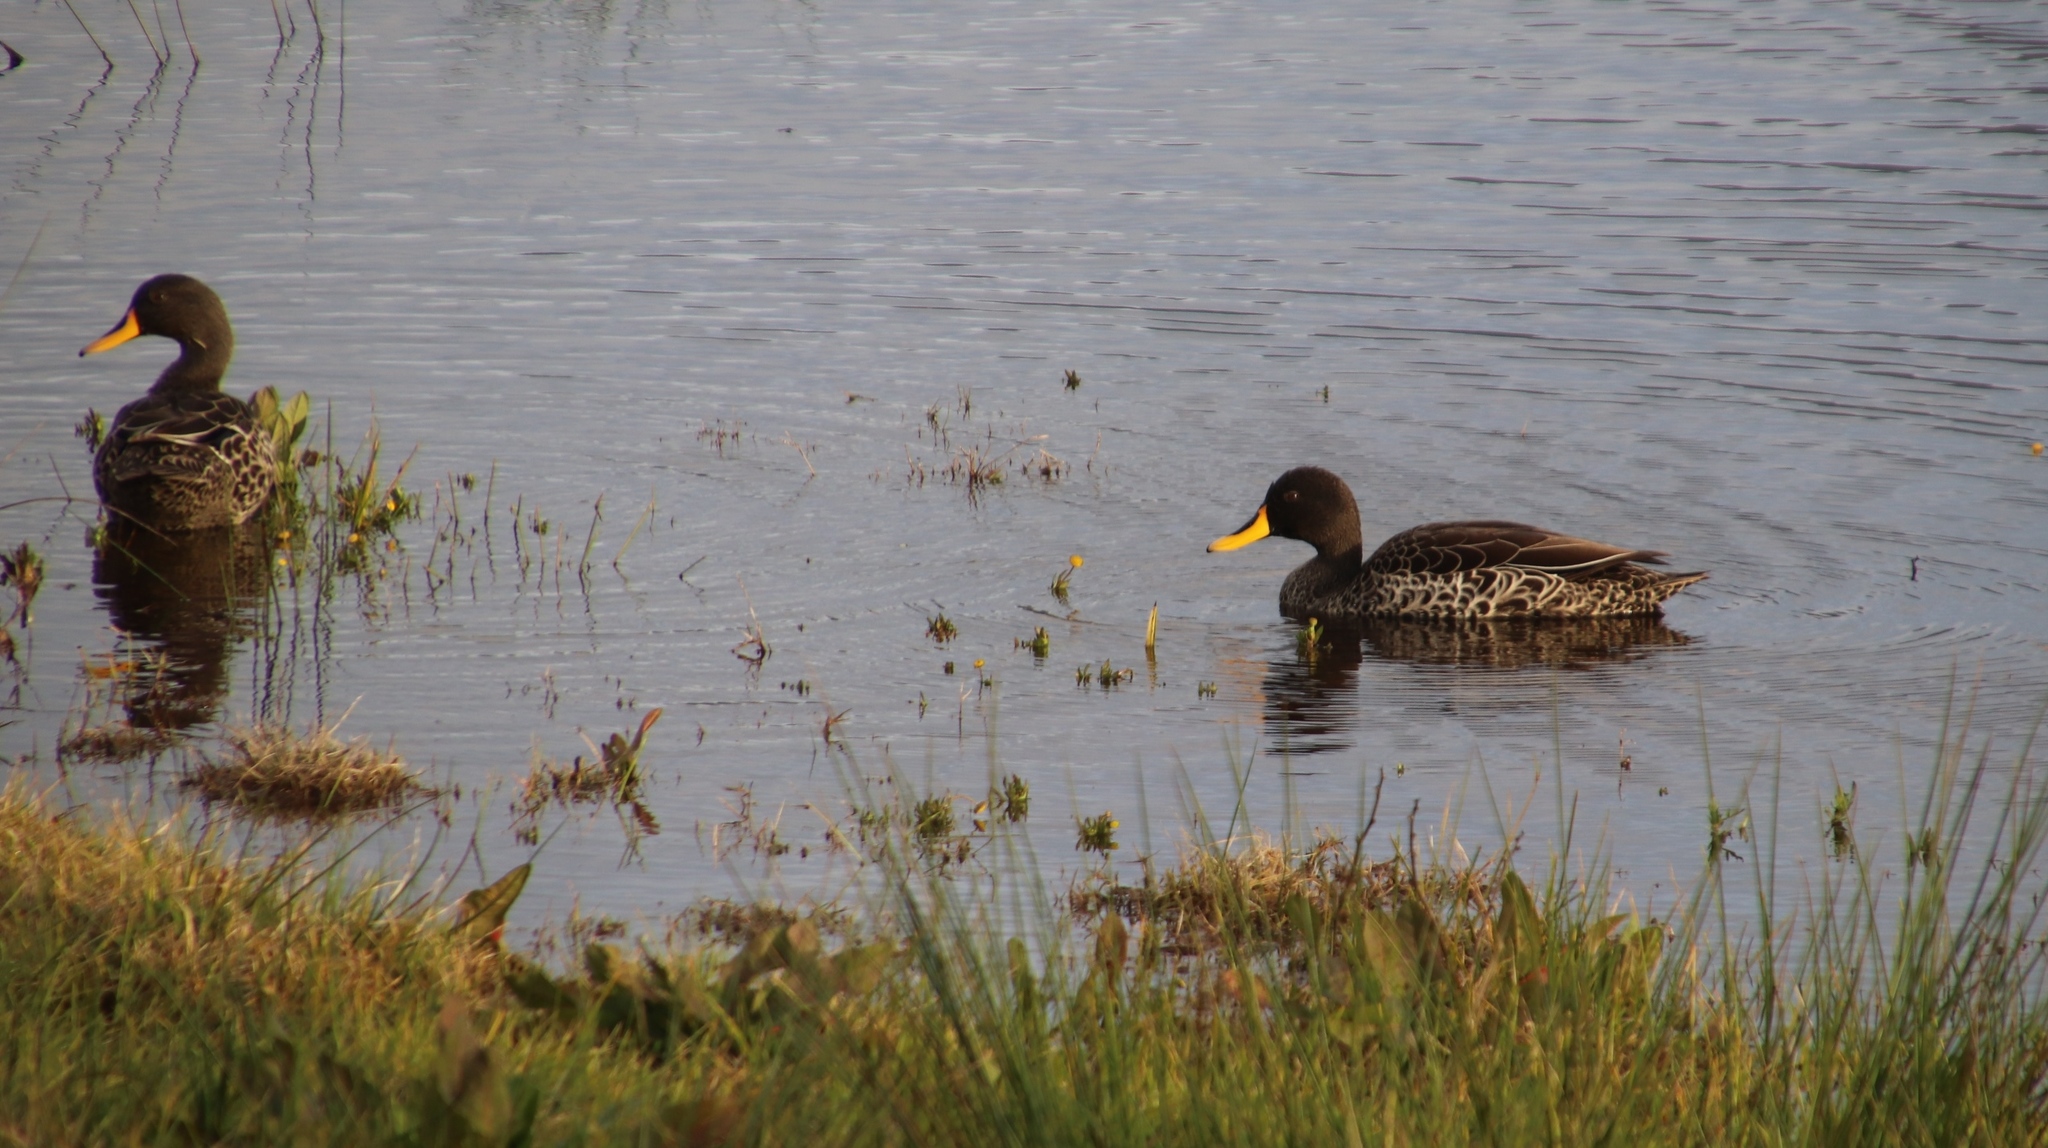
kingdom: Animalia
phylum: Chordata
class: Aves
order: Anseriformes
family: Anatidae
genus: Anas
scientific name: Anas undulata
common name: Yellow-billed duck
